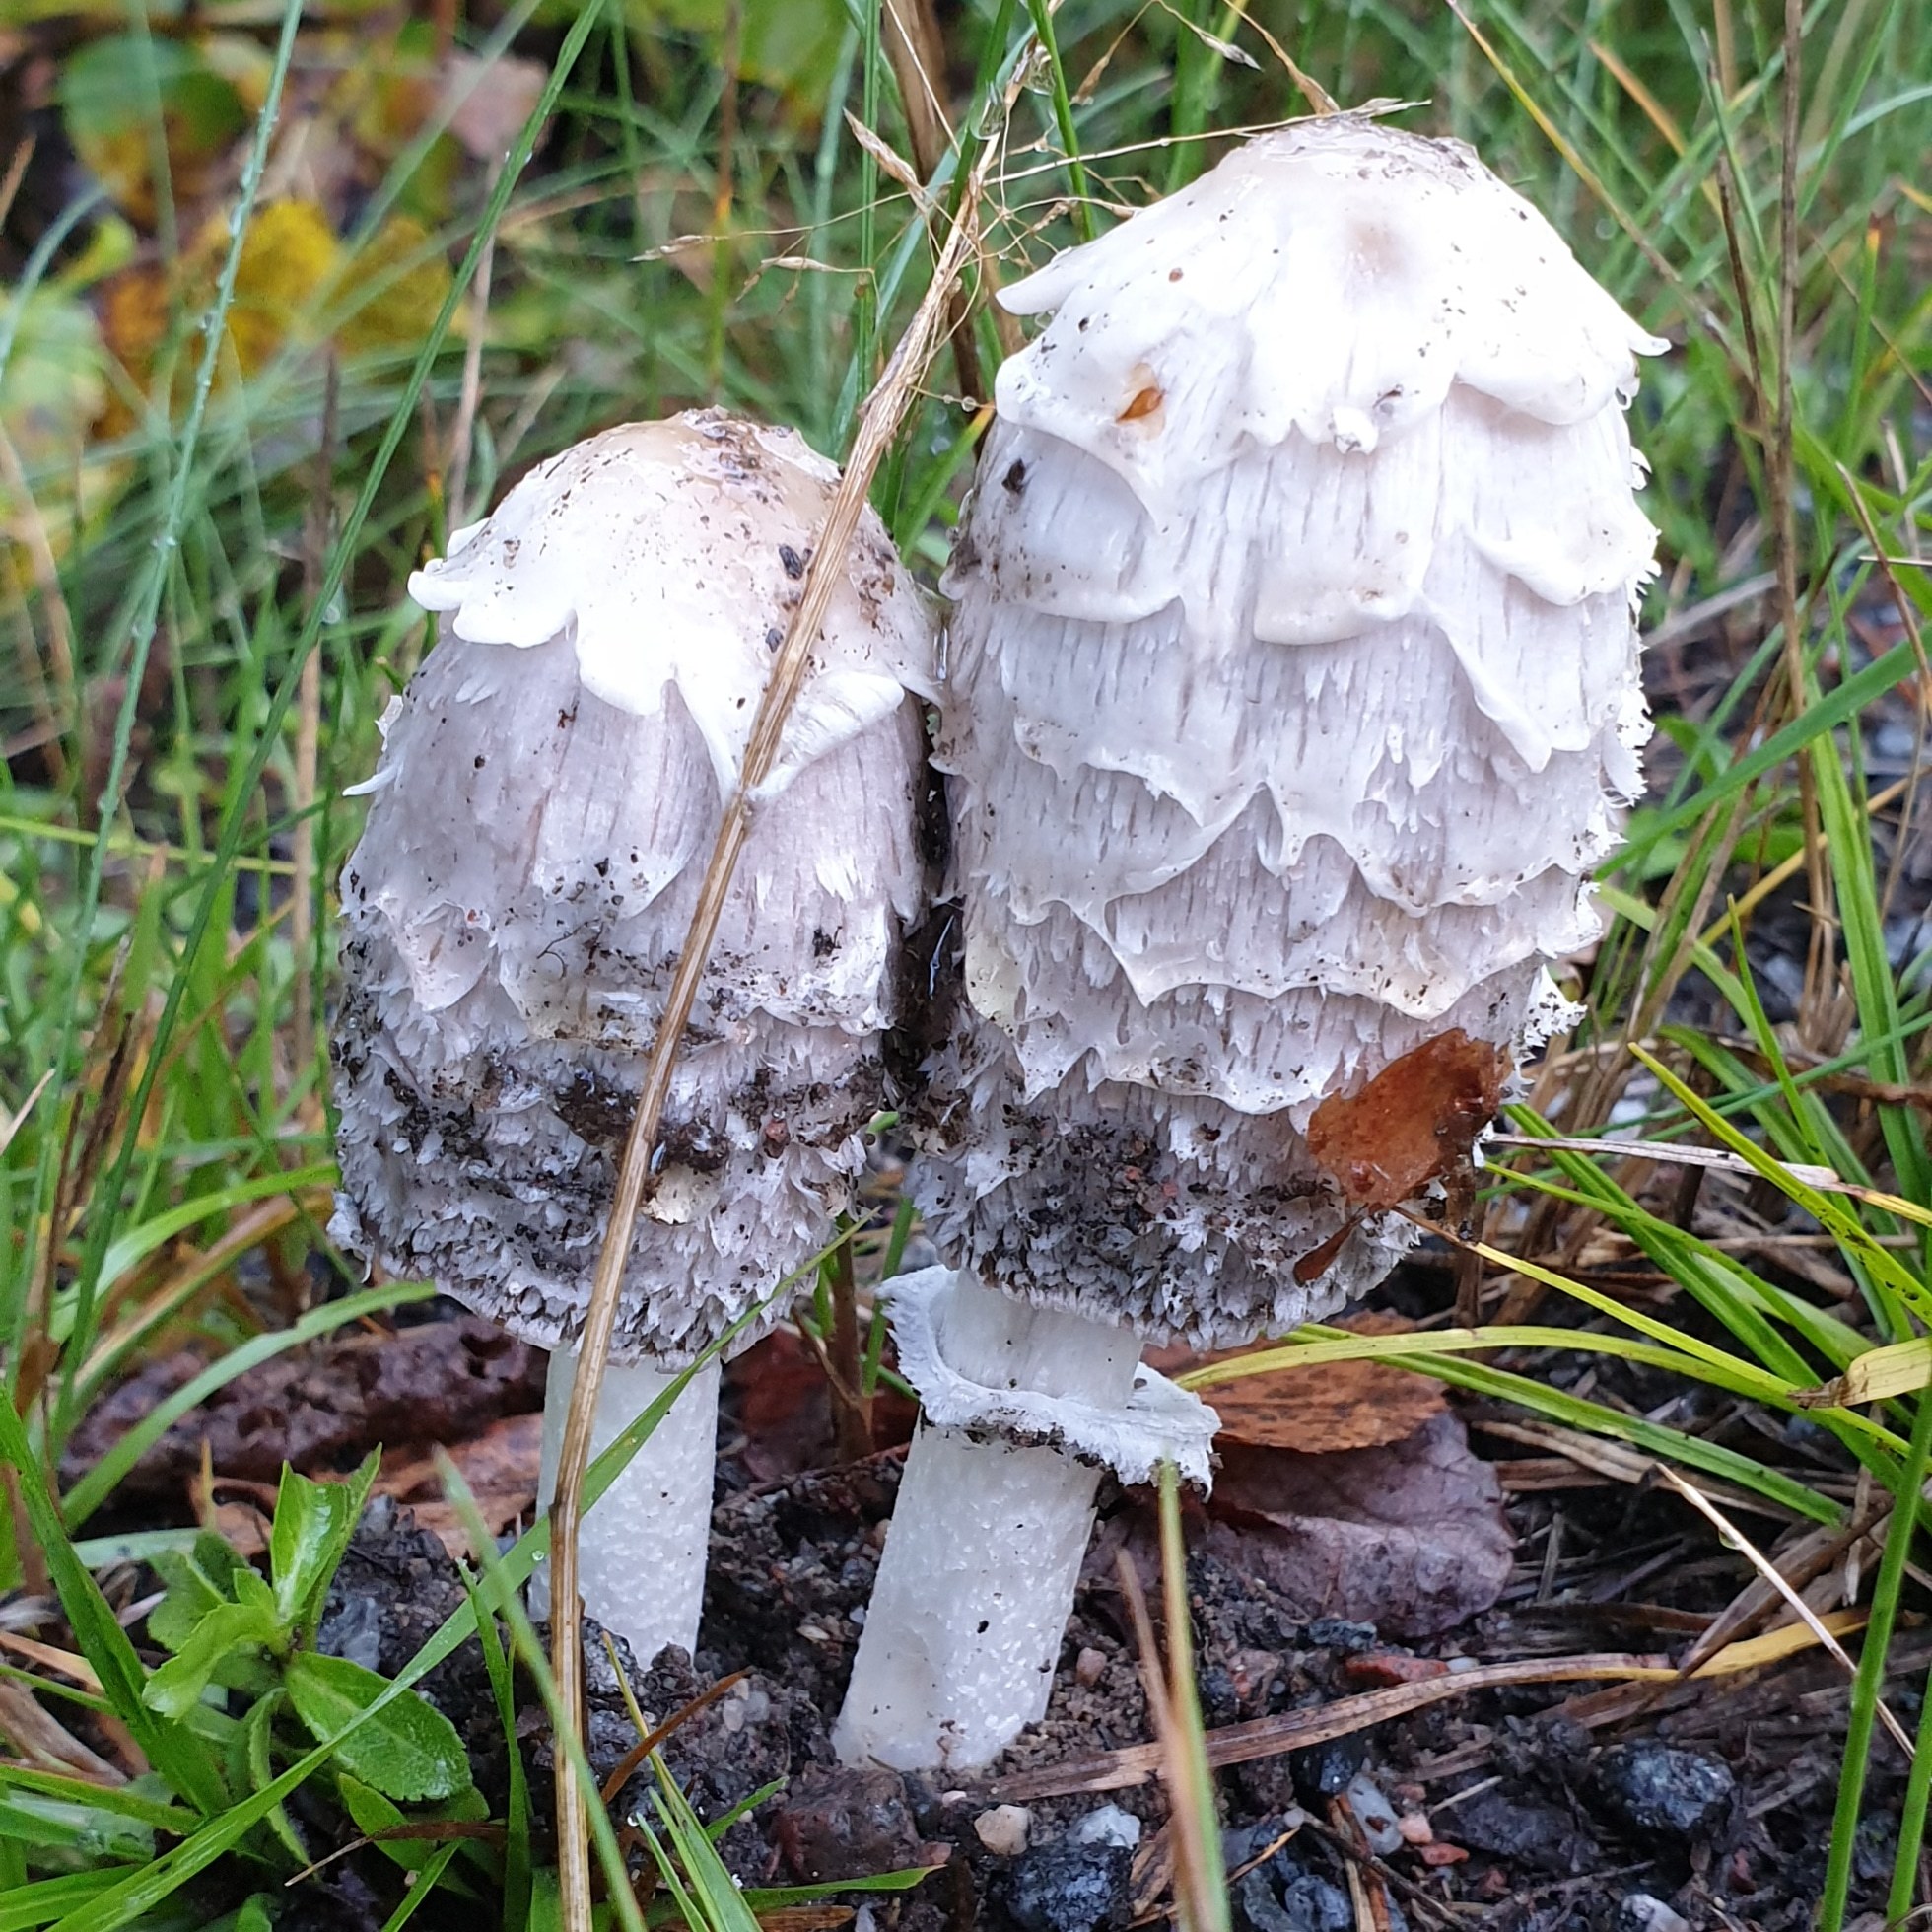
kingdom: Fungi
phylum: Basidiomycota
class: Agaricomycetes
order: Agaricales
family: Agaricaceae
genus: Coprinus
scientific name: Coprinus comatus
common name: Lawyer's wig
